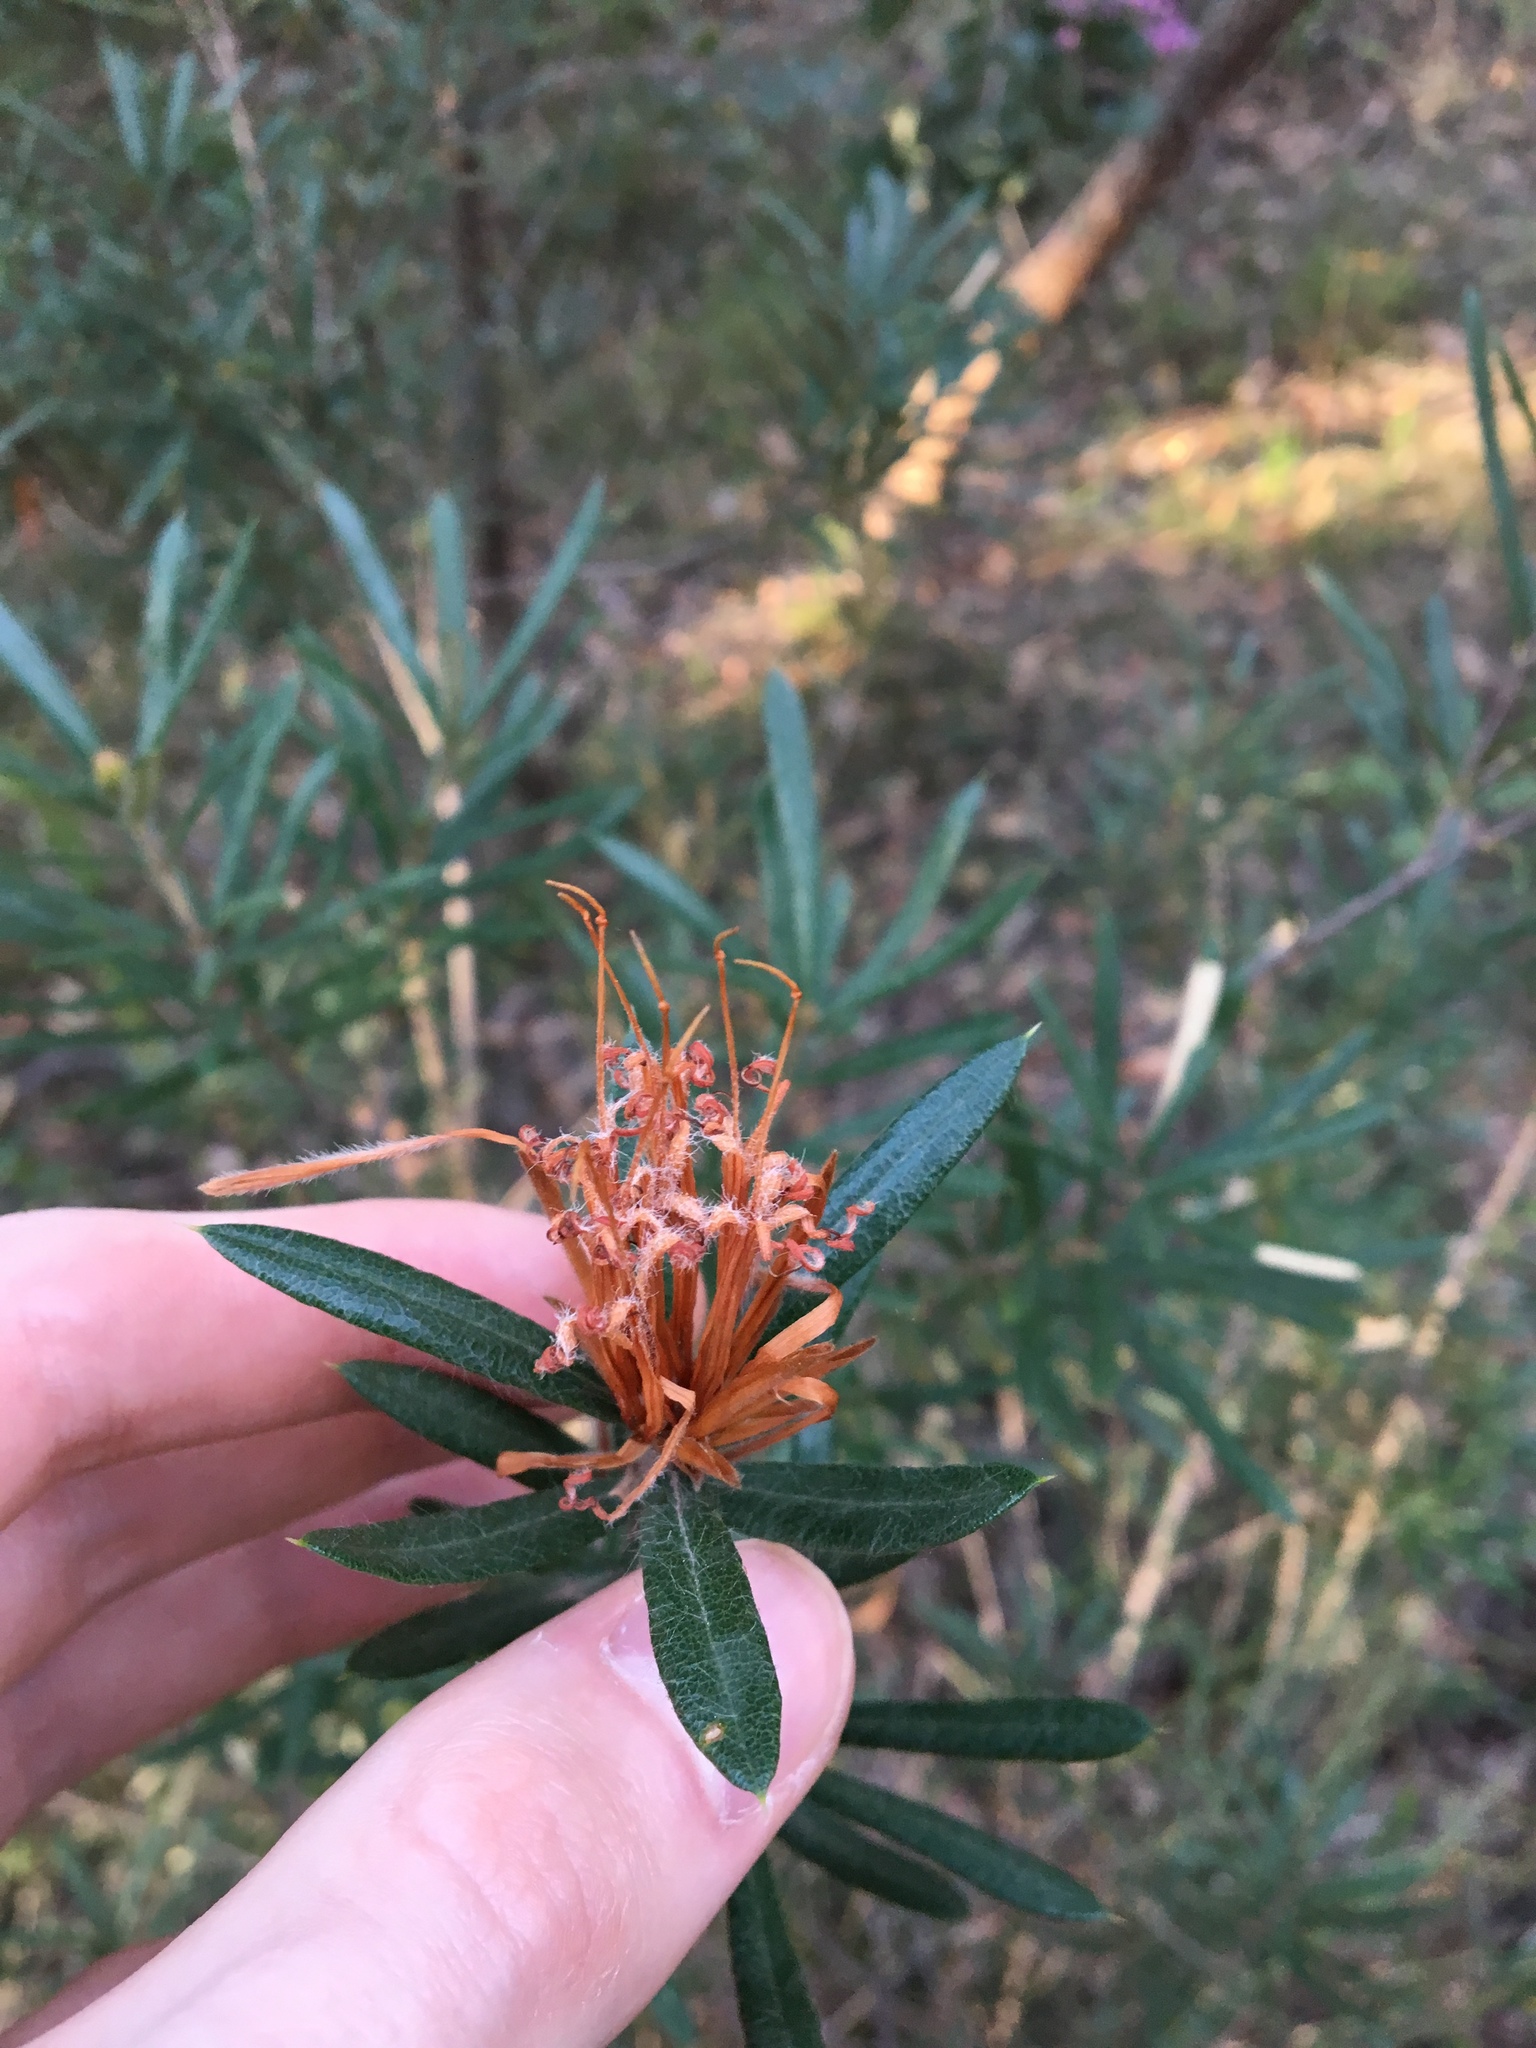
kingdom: Plantae
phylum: Tracheophyta
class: Magnoliopsida
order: Proteales
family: Proteaceae
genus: Lambertia
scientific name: Lambertia formosa
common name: Mountain-devil
